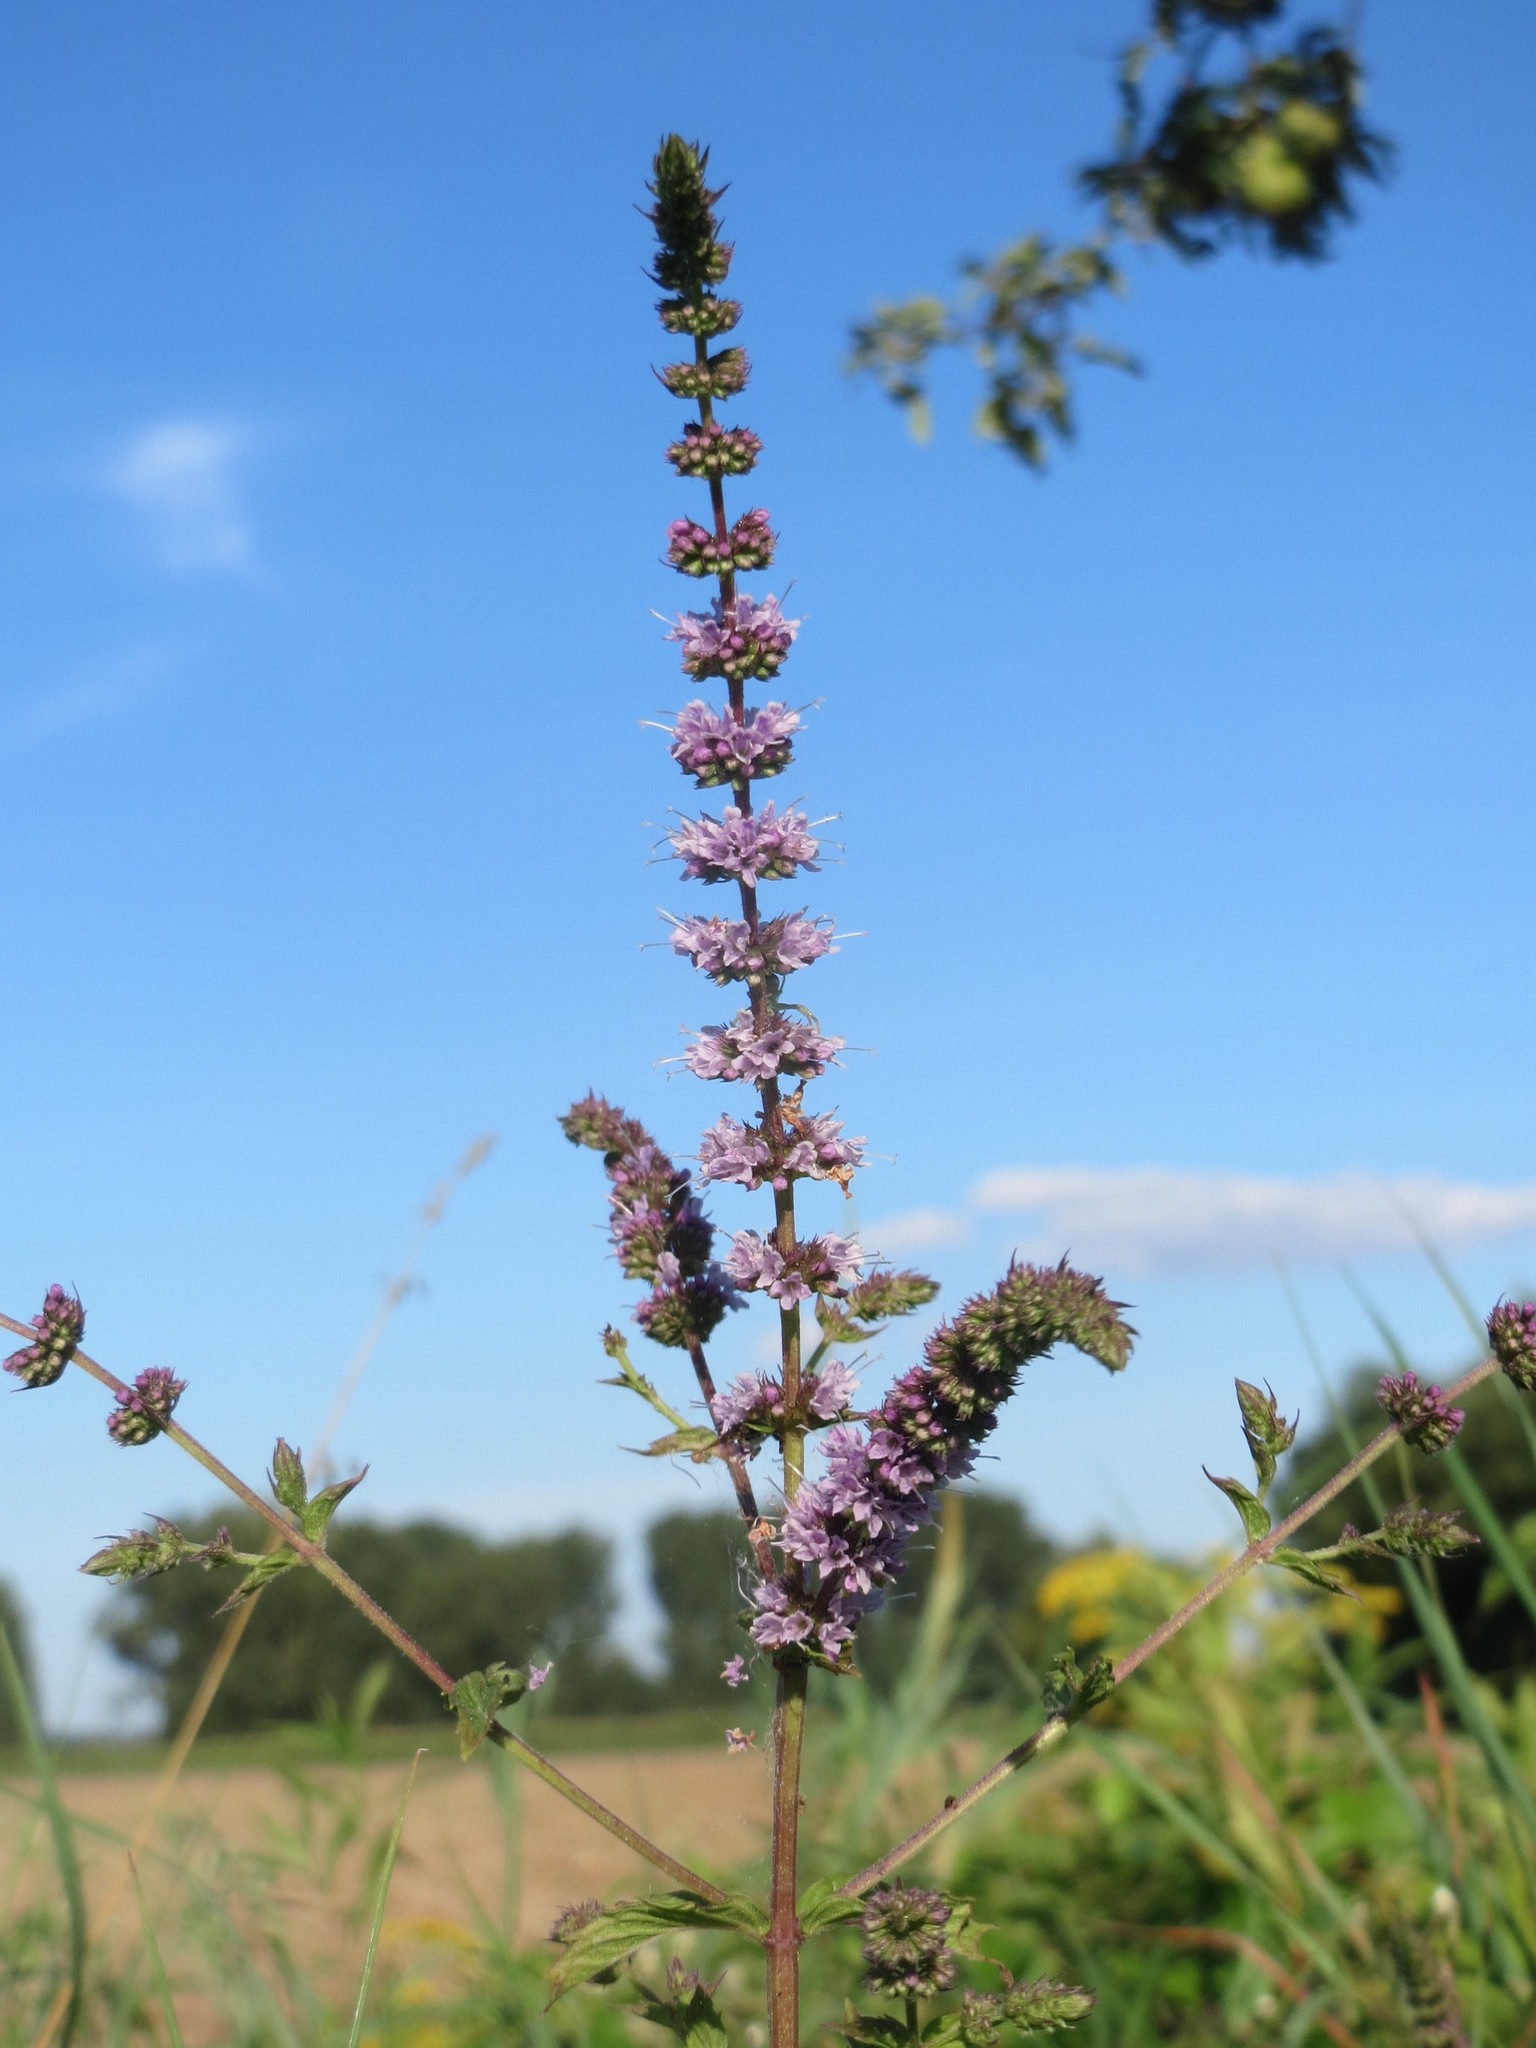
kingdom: Plantae
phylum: Tracheophyta
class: Magnoliopsida
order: Lamiales
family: Lamiaceae
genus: Mentha
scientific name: Mentha spicata
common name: Spearmint
